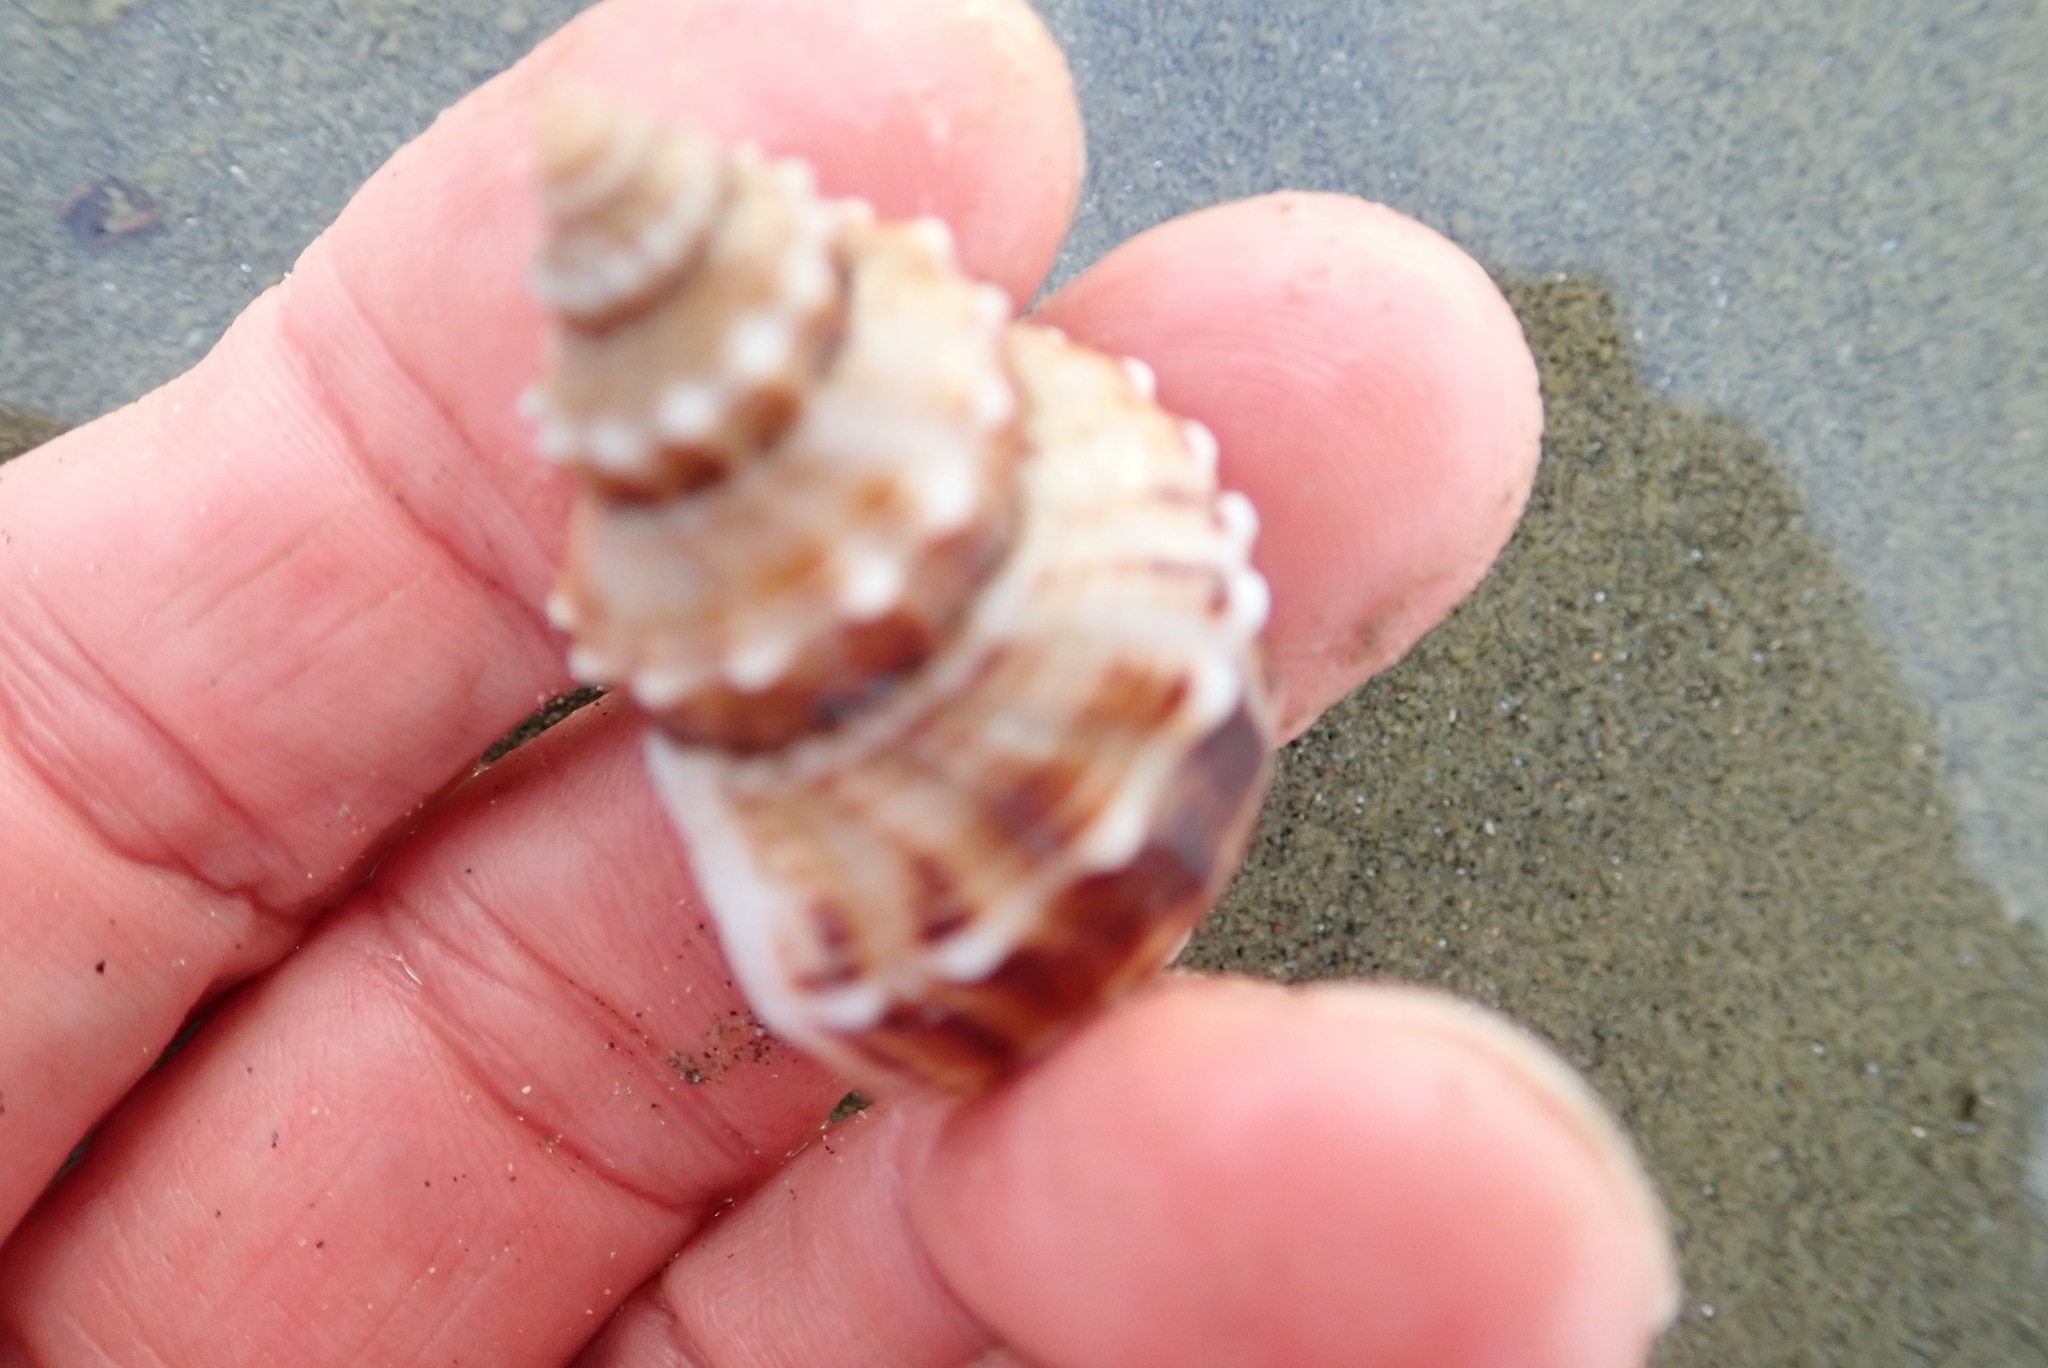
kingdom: Animalia
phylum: Mollusca
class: Gastropoda
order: Neogastropoda
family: Prosiphonidae
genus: Austrofusus
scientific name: Austrofusus glans
